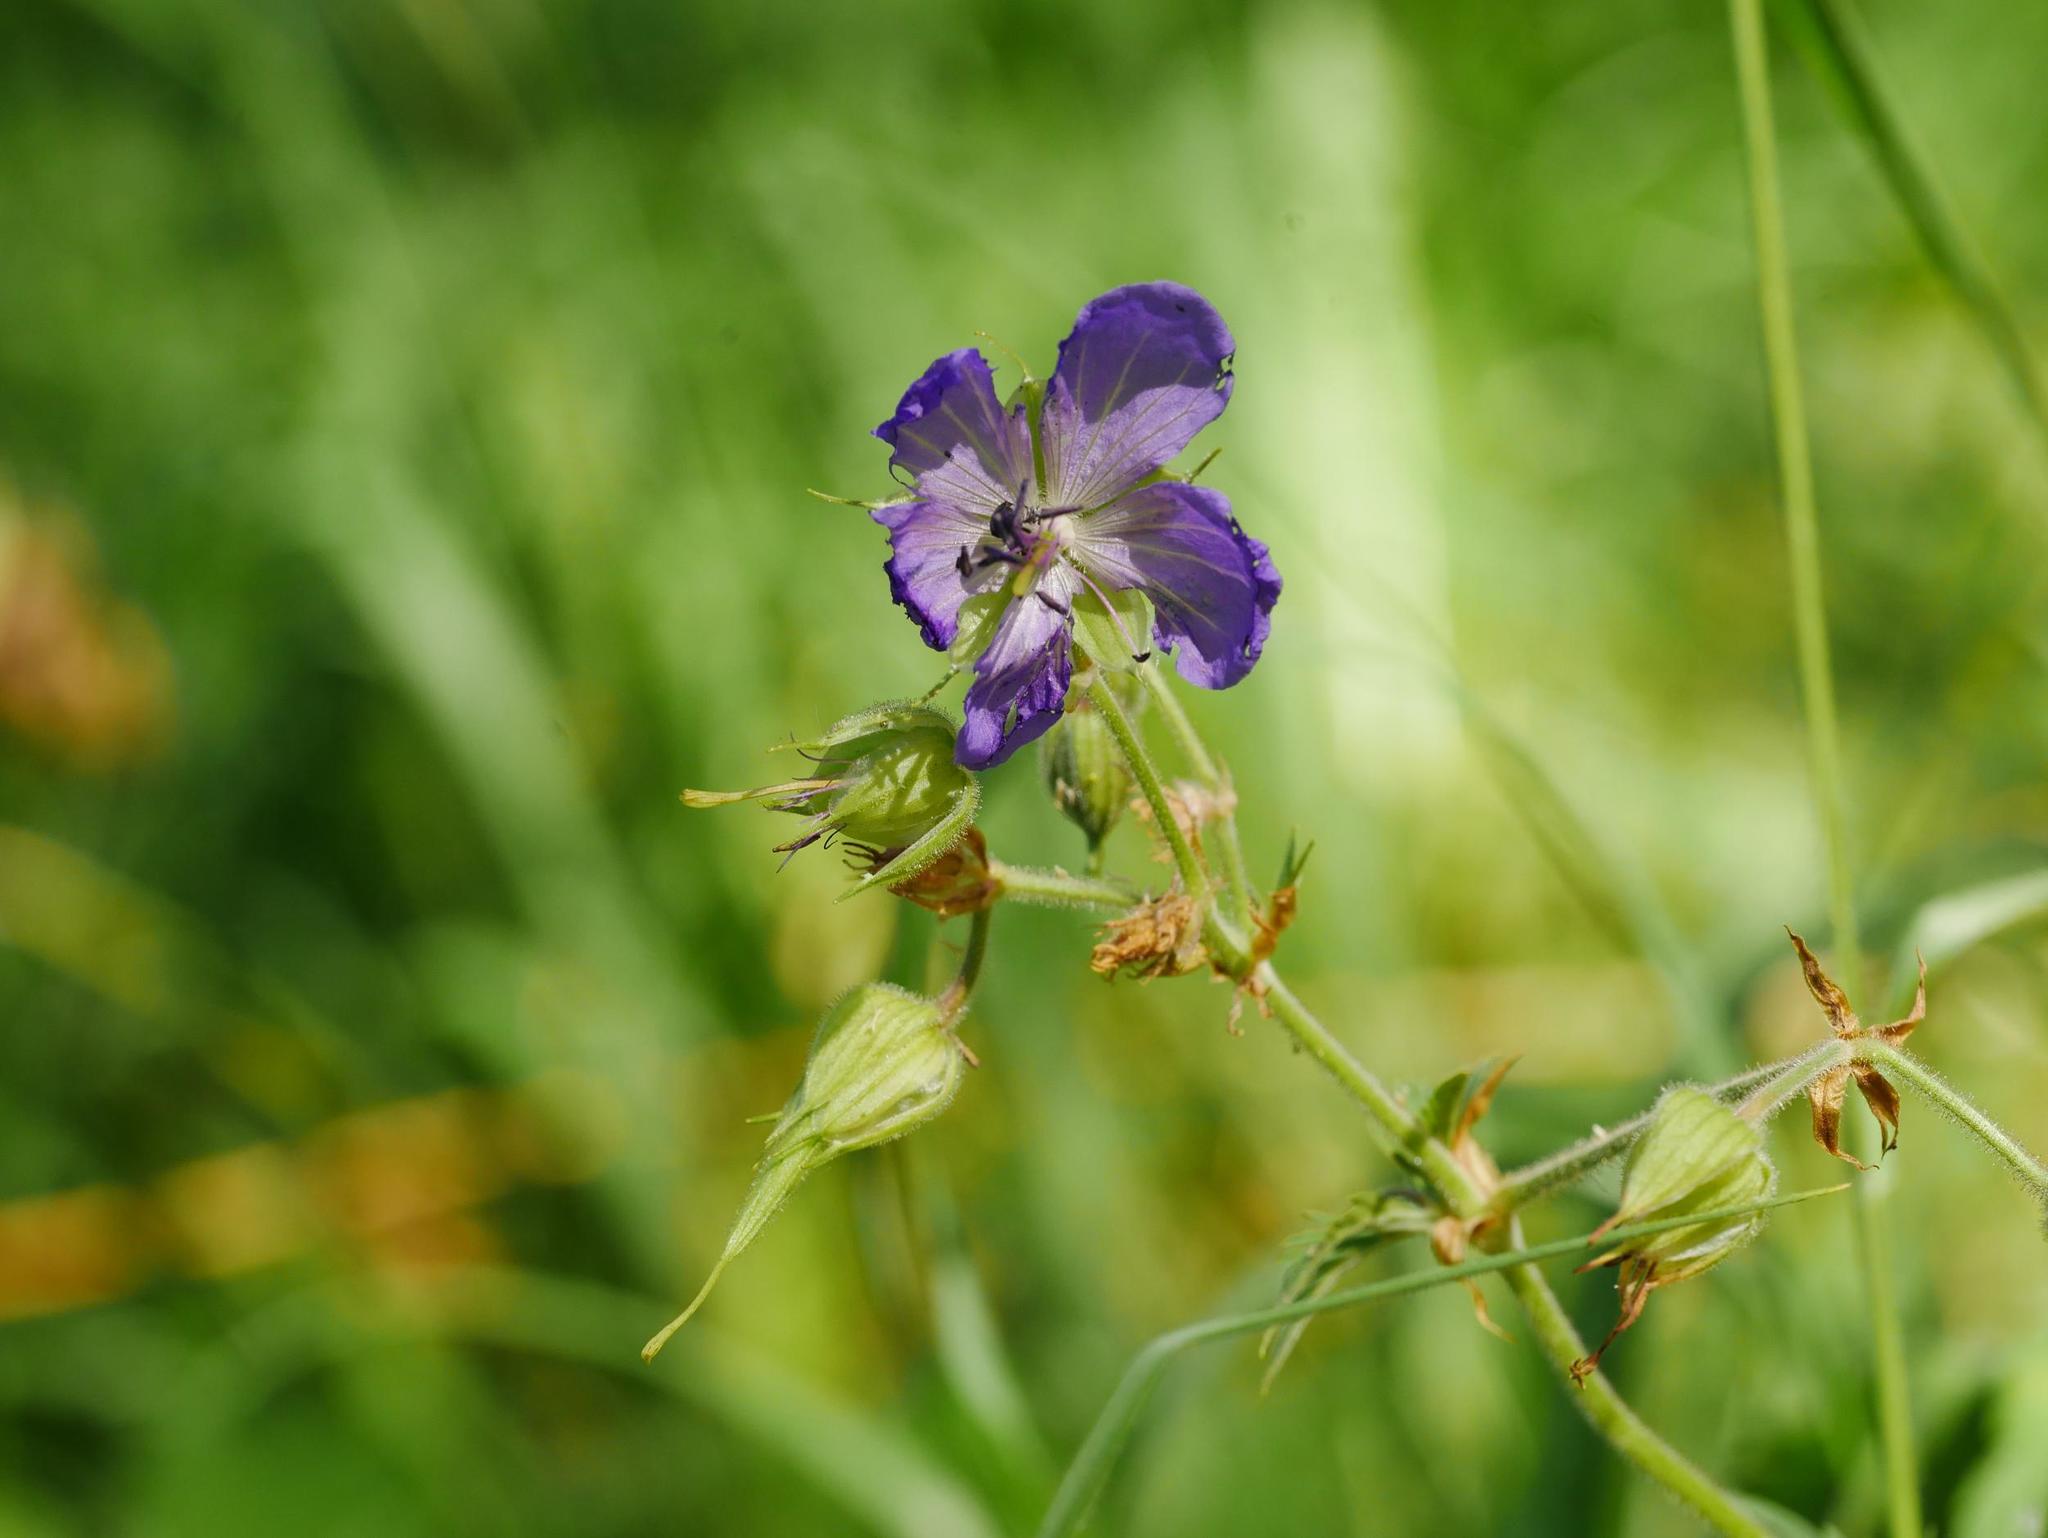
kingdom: Plantae
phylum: Tracheophyta
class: Magnoliopsida
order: Geraniales
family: Geraniaceae
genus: Geranium
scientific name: Geranium pratense
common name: Meadow crane's-bill
